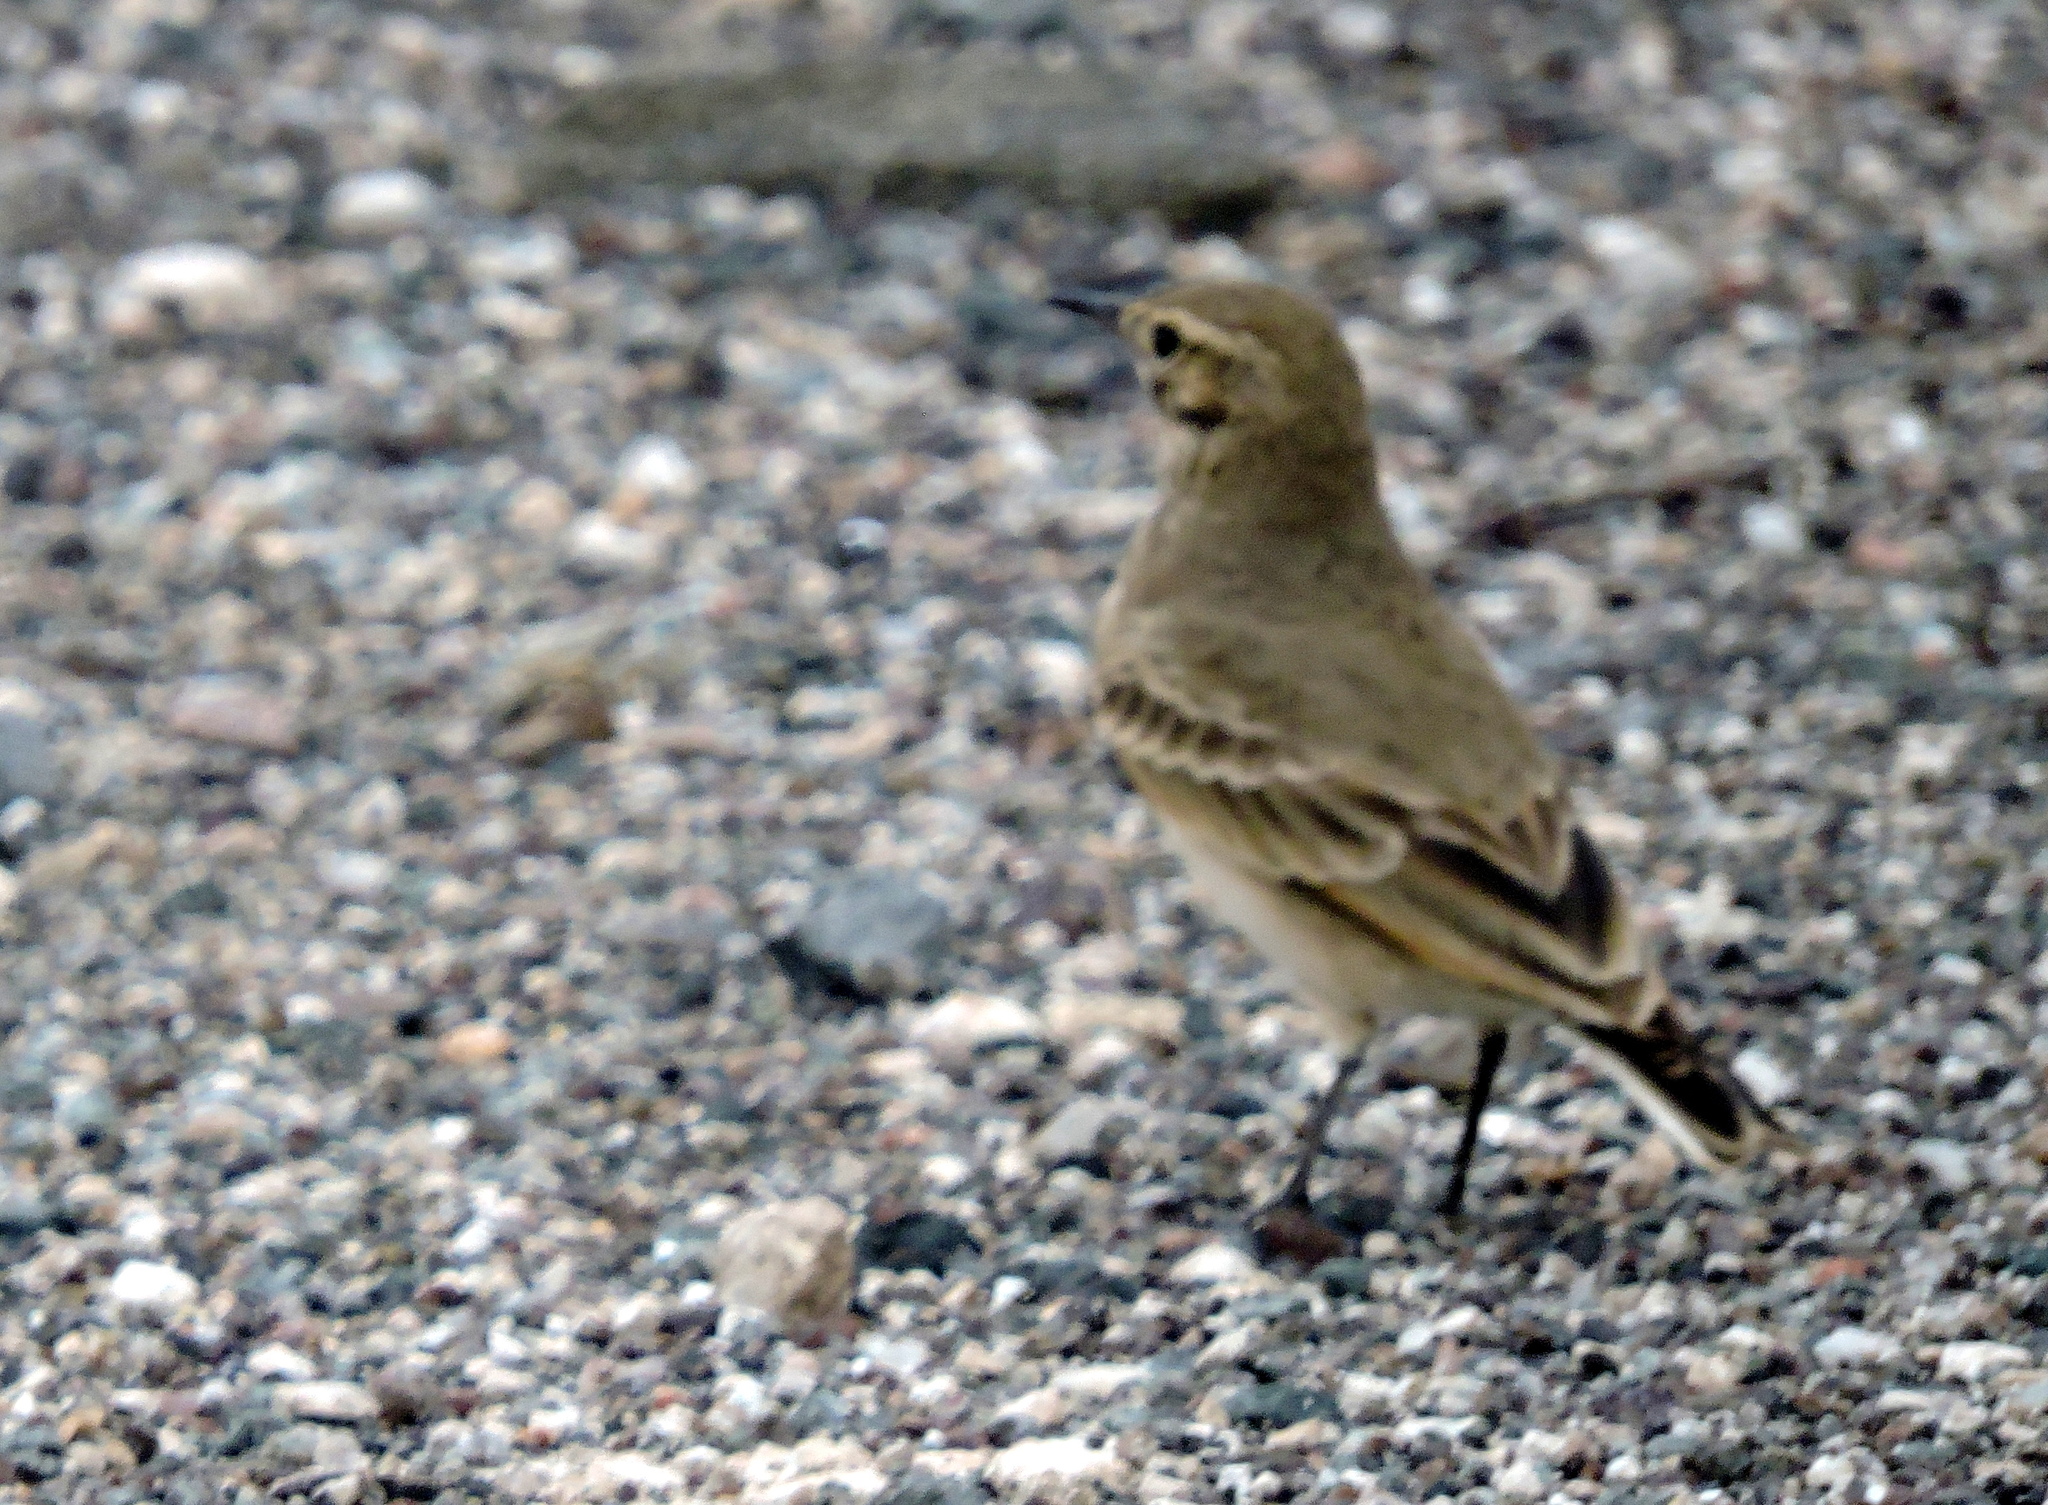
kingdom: Animalia
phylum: Chordata
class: Aves
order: Passeriformes
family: Furnariidae
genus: Geositta
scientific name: Geositta cunicularia
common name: Common miner
